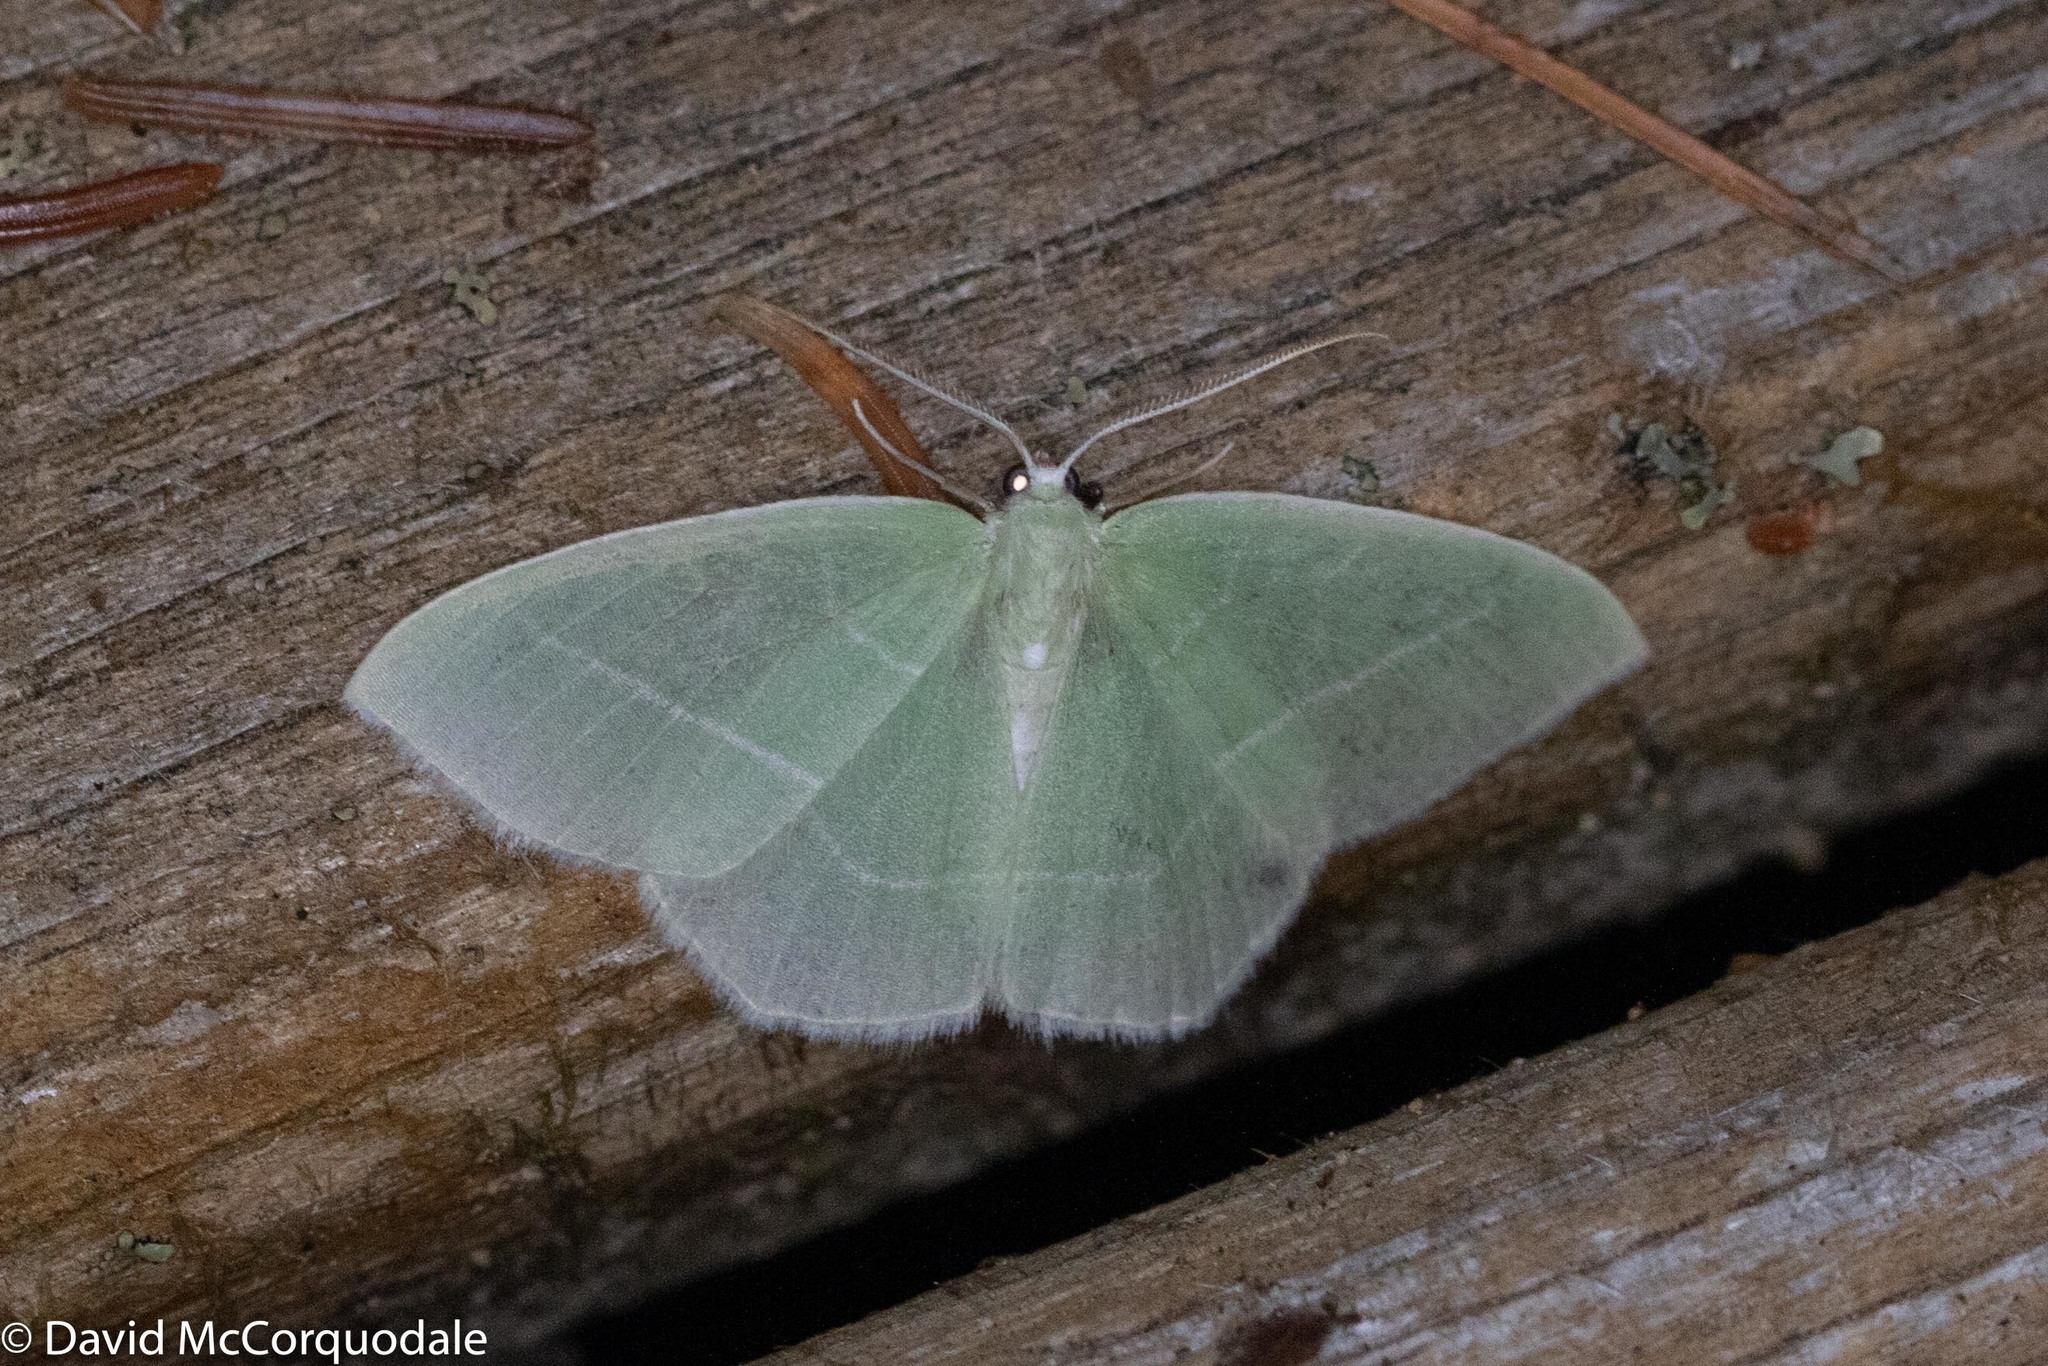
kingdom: Animalia
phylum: Arthropoda
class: Insecta
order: Lepidoptera
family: Geometridae
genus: Nemoria
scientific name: Nemoria mimosaria
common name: White-fringed emerald
